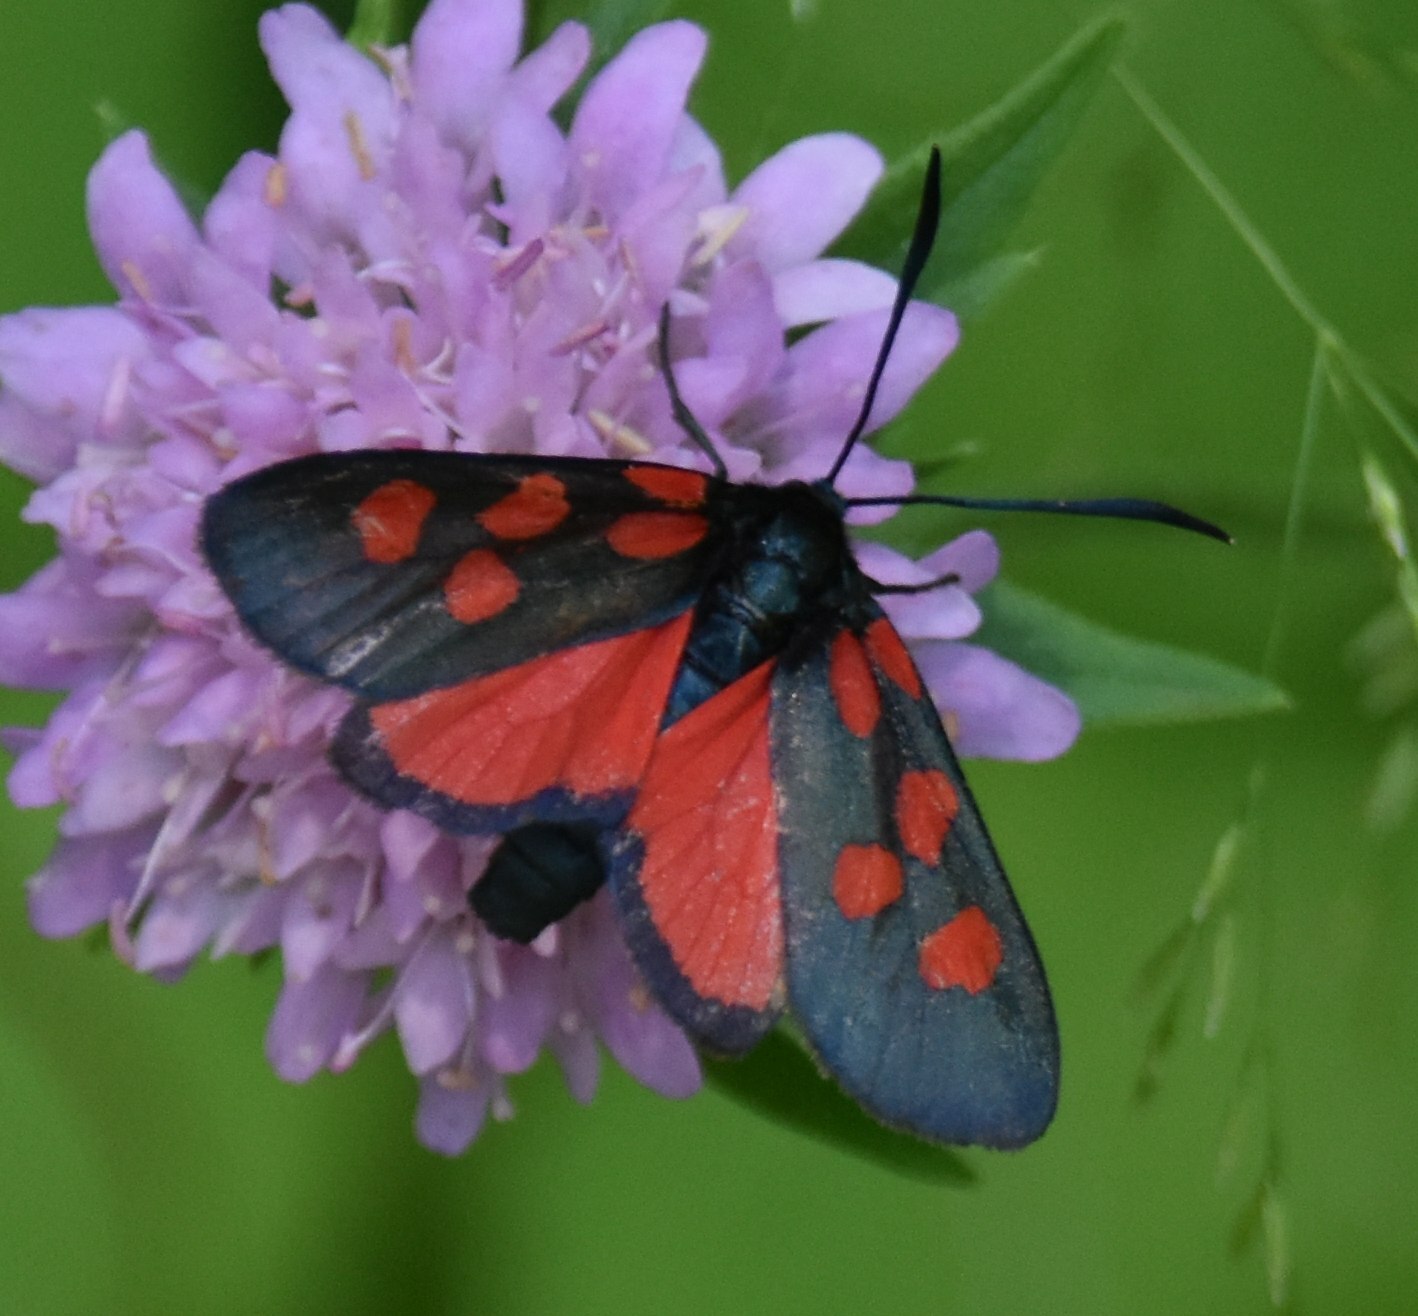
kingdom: Animalia
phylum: Arthropoda
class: Insecta
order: Lepidoptera
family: Zygaenidae
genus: Zygaena
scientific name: Zygaena angelicae
